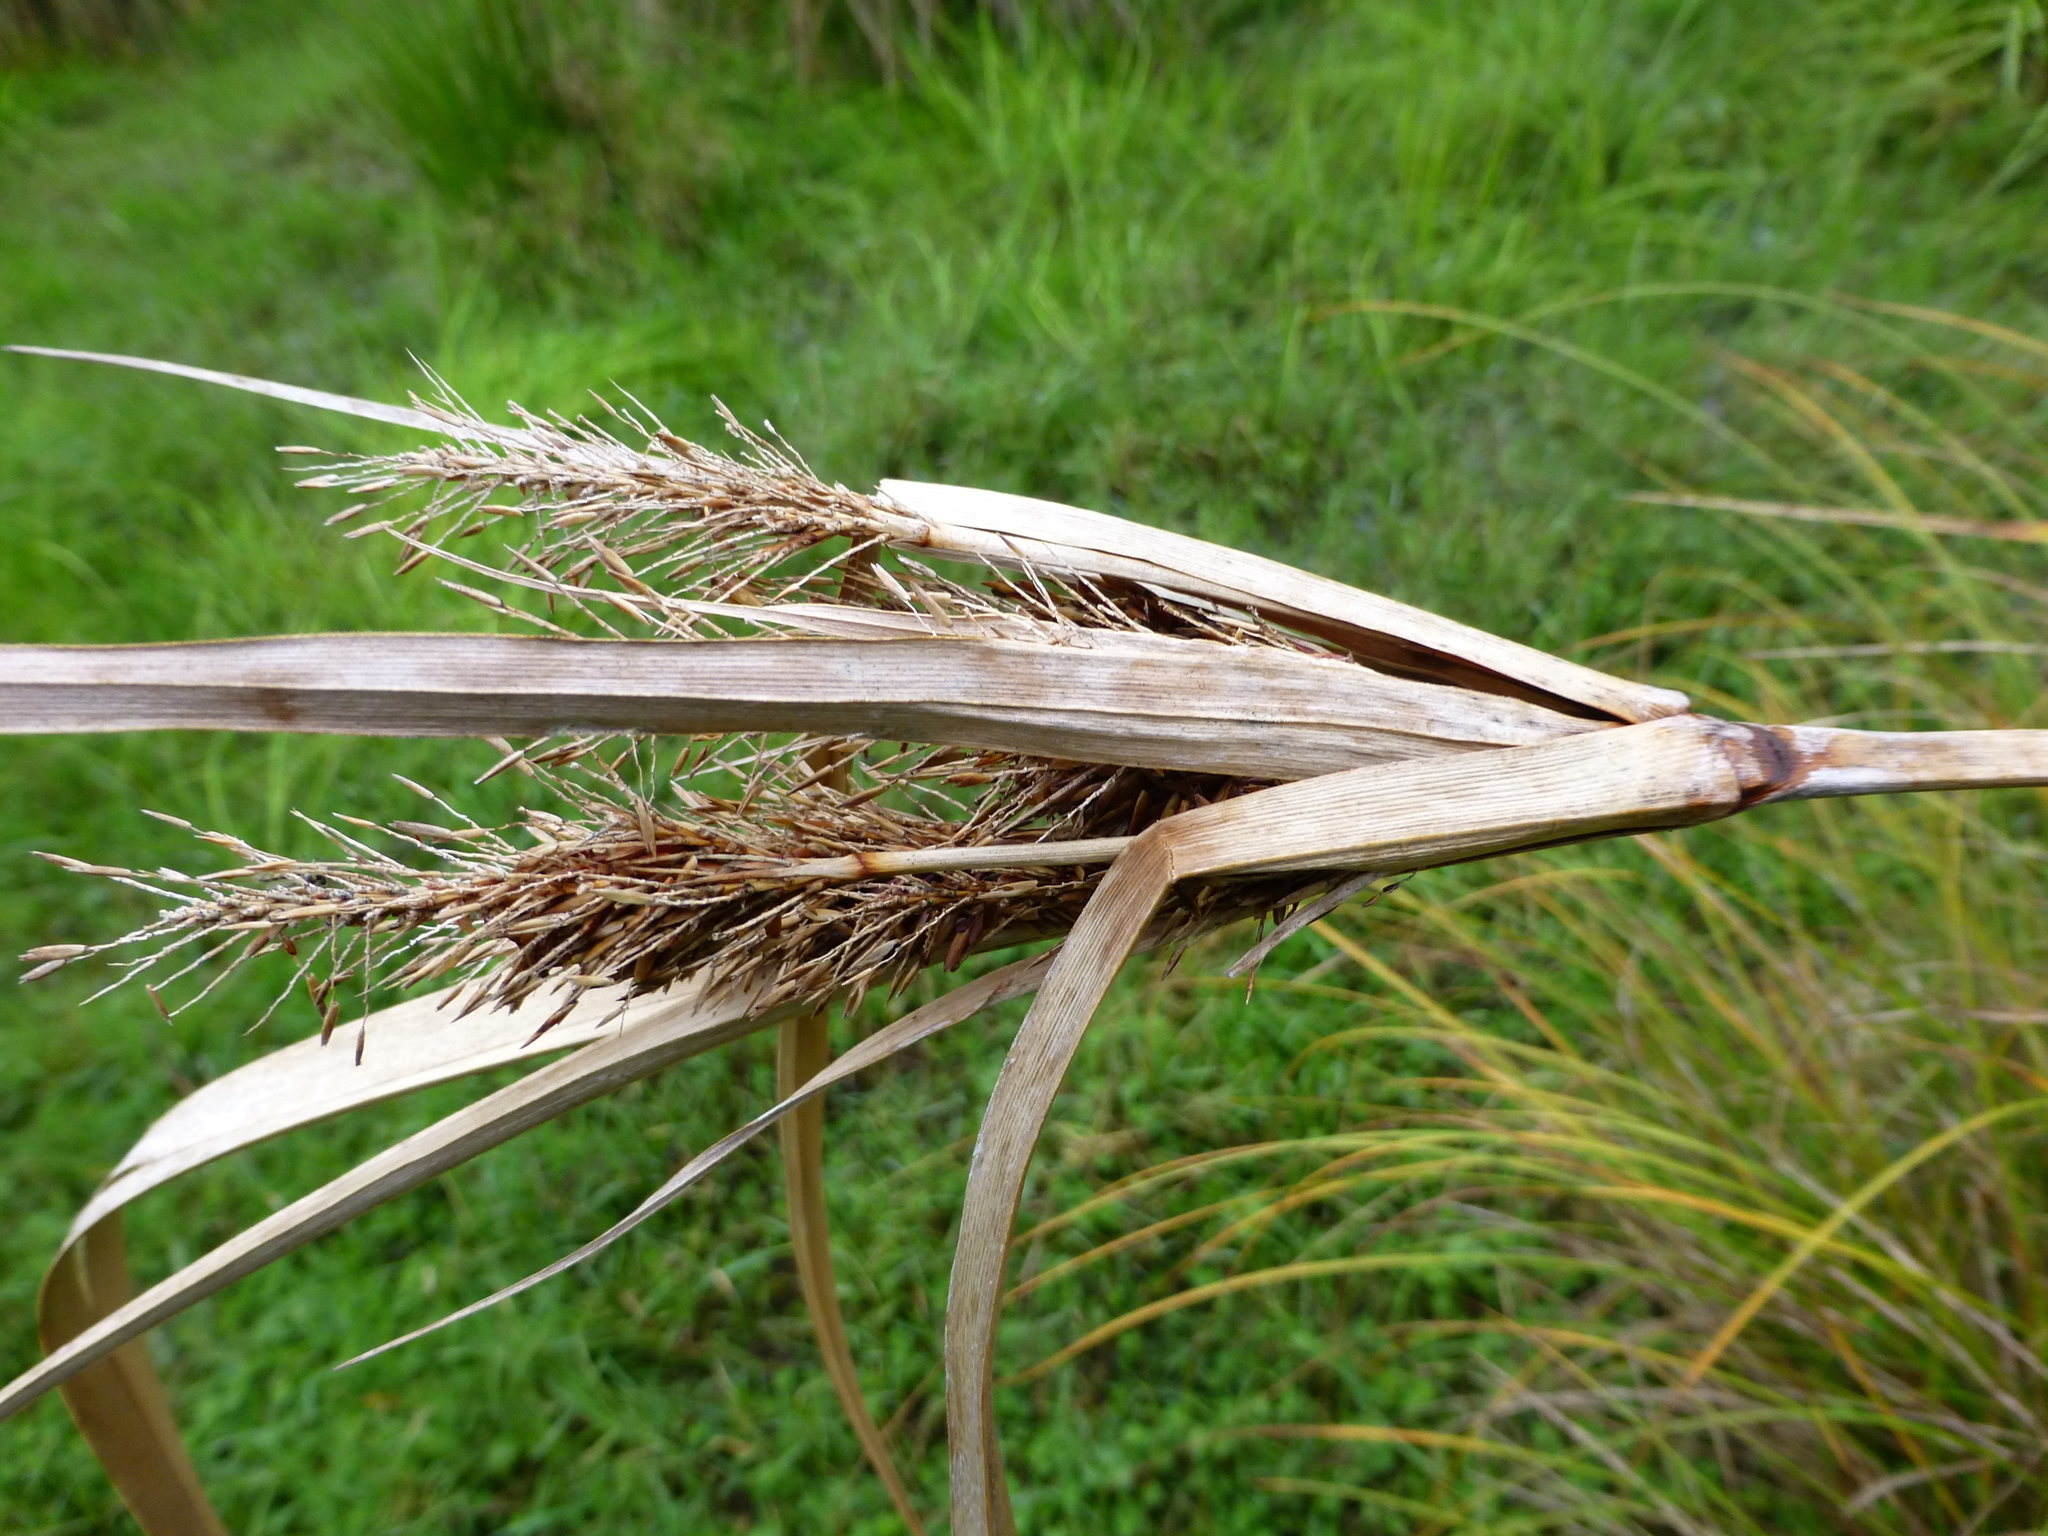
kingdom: Plantae
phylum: Tracheophyta
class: Liliopsida
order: Poales
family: Cyperaceae
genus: Cyperus
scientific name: Cyperus ustulatus
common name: Giant umbrella-sedge
